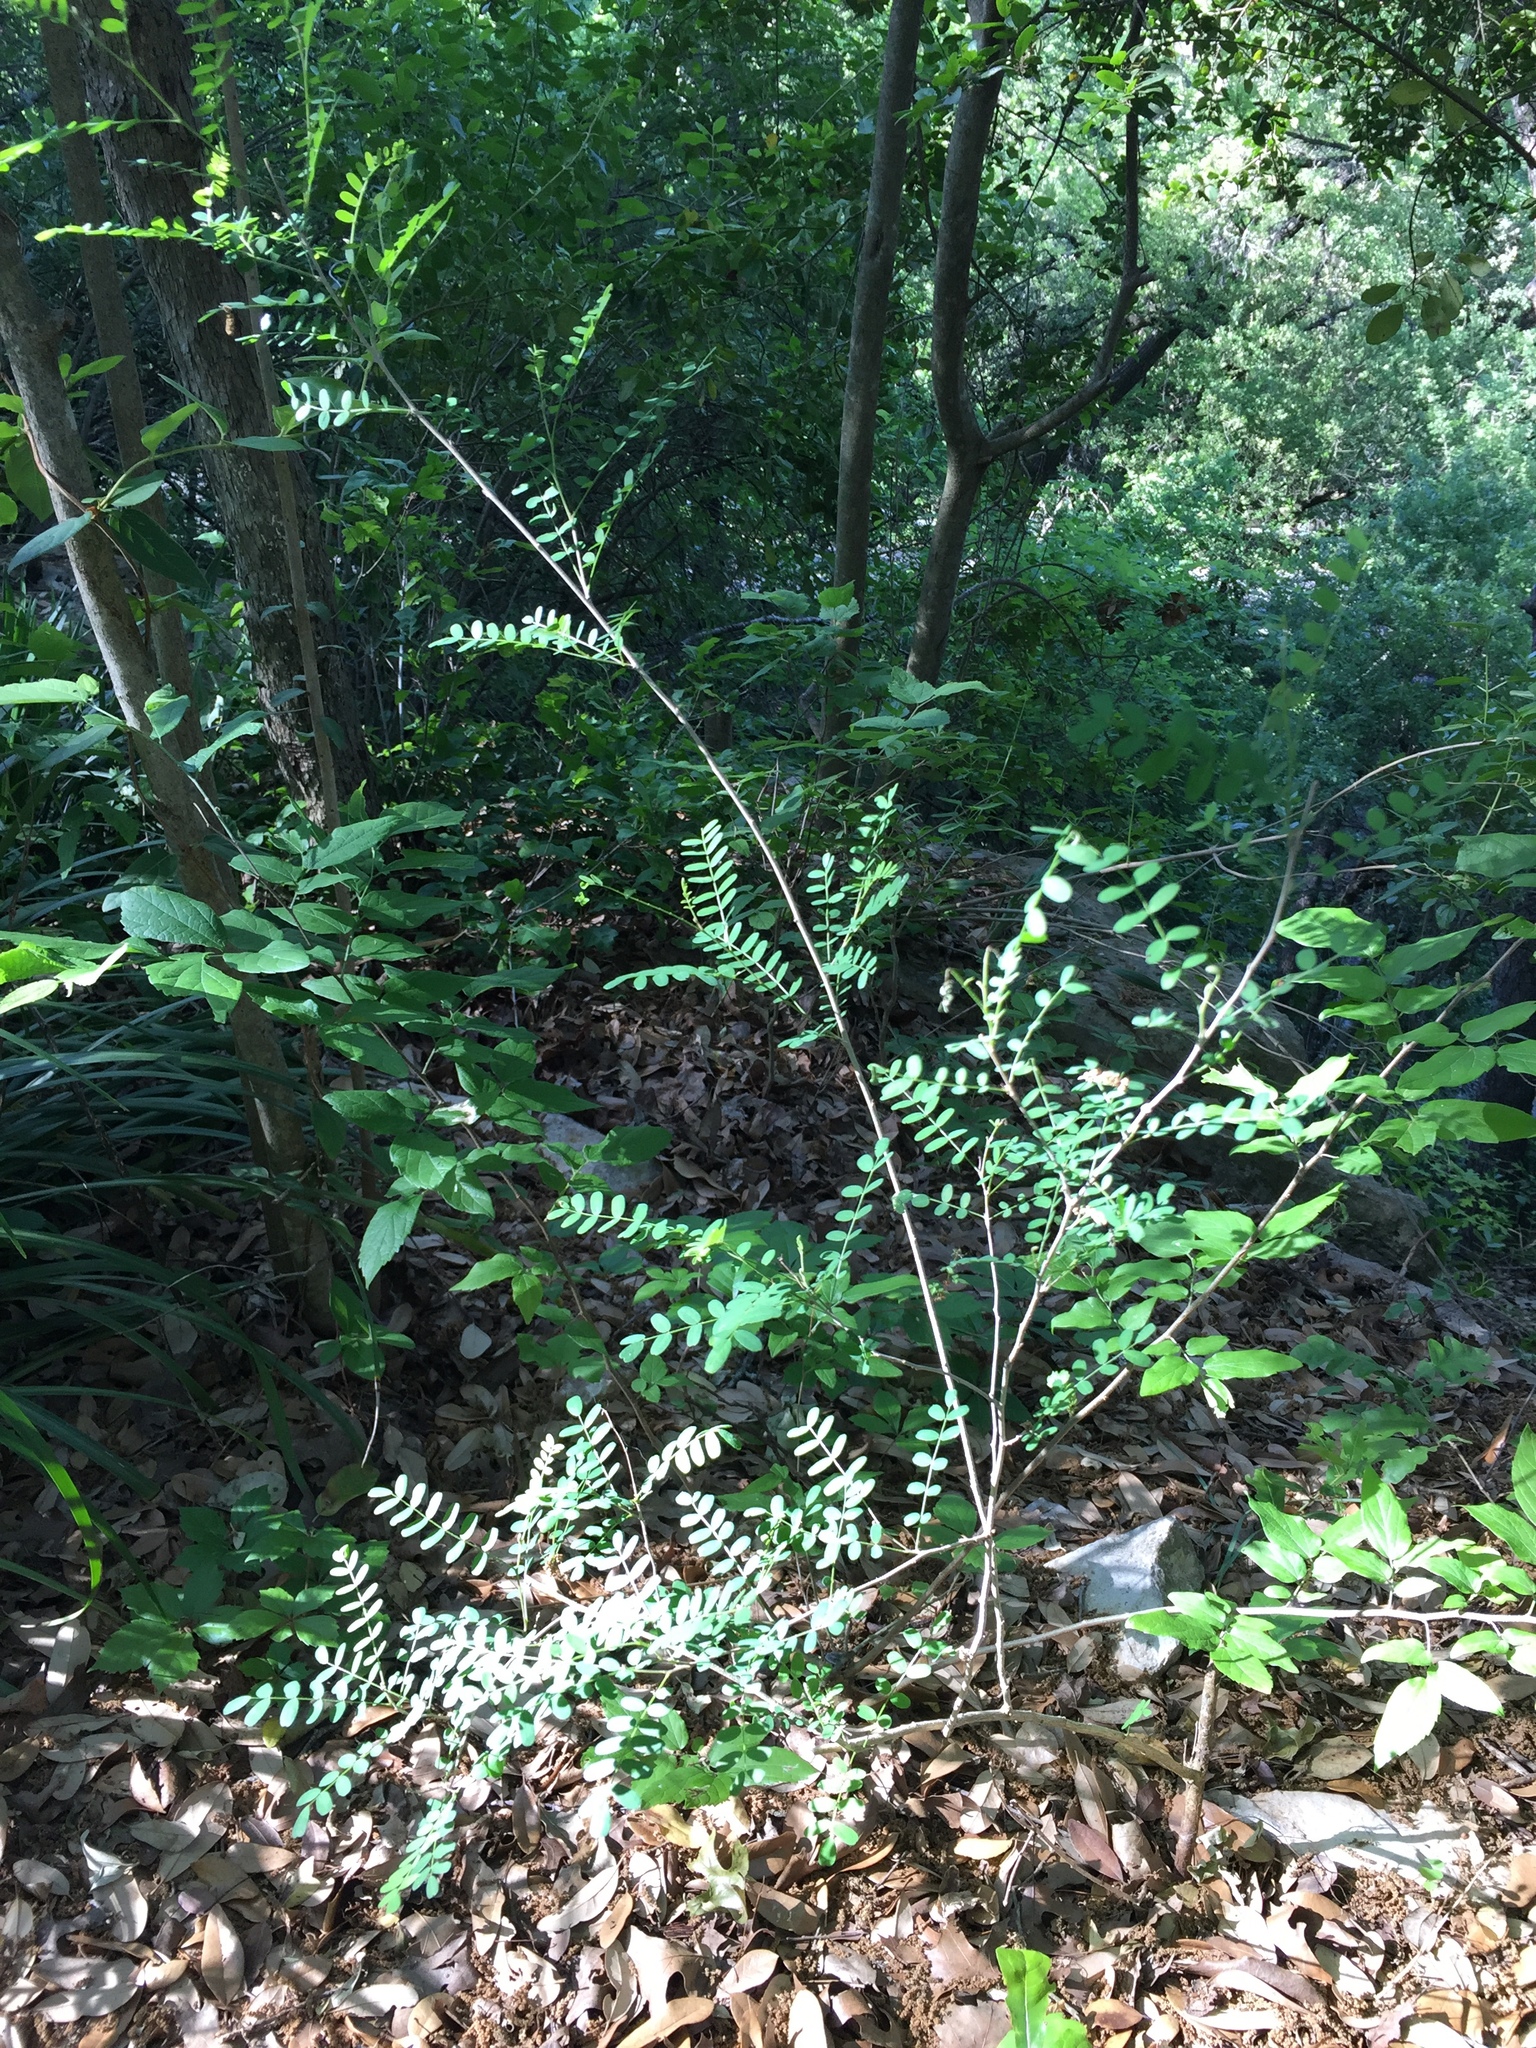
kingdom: Plantae
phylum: Tracheophyta
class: Magnoliopsida
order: Fabales
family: Fabaceae
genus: Eysenhardtia
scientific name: Eysenhardtia texana
